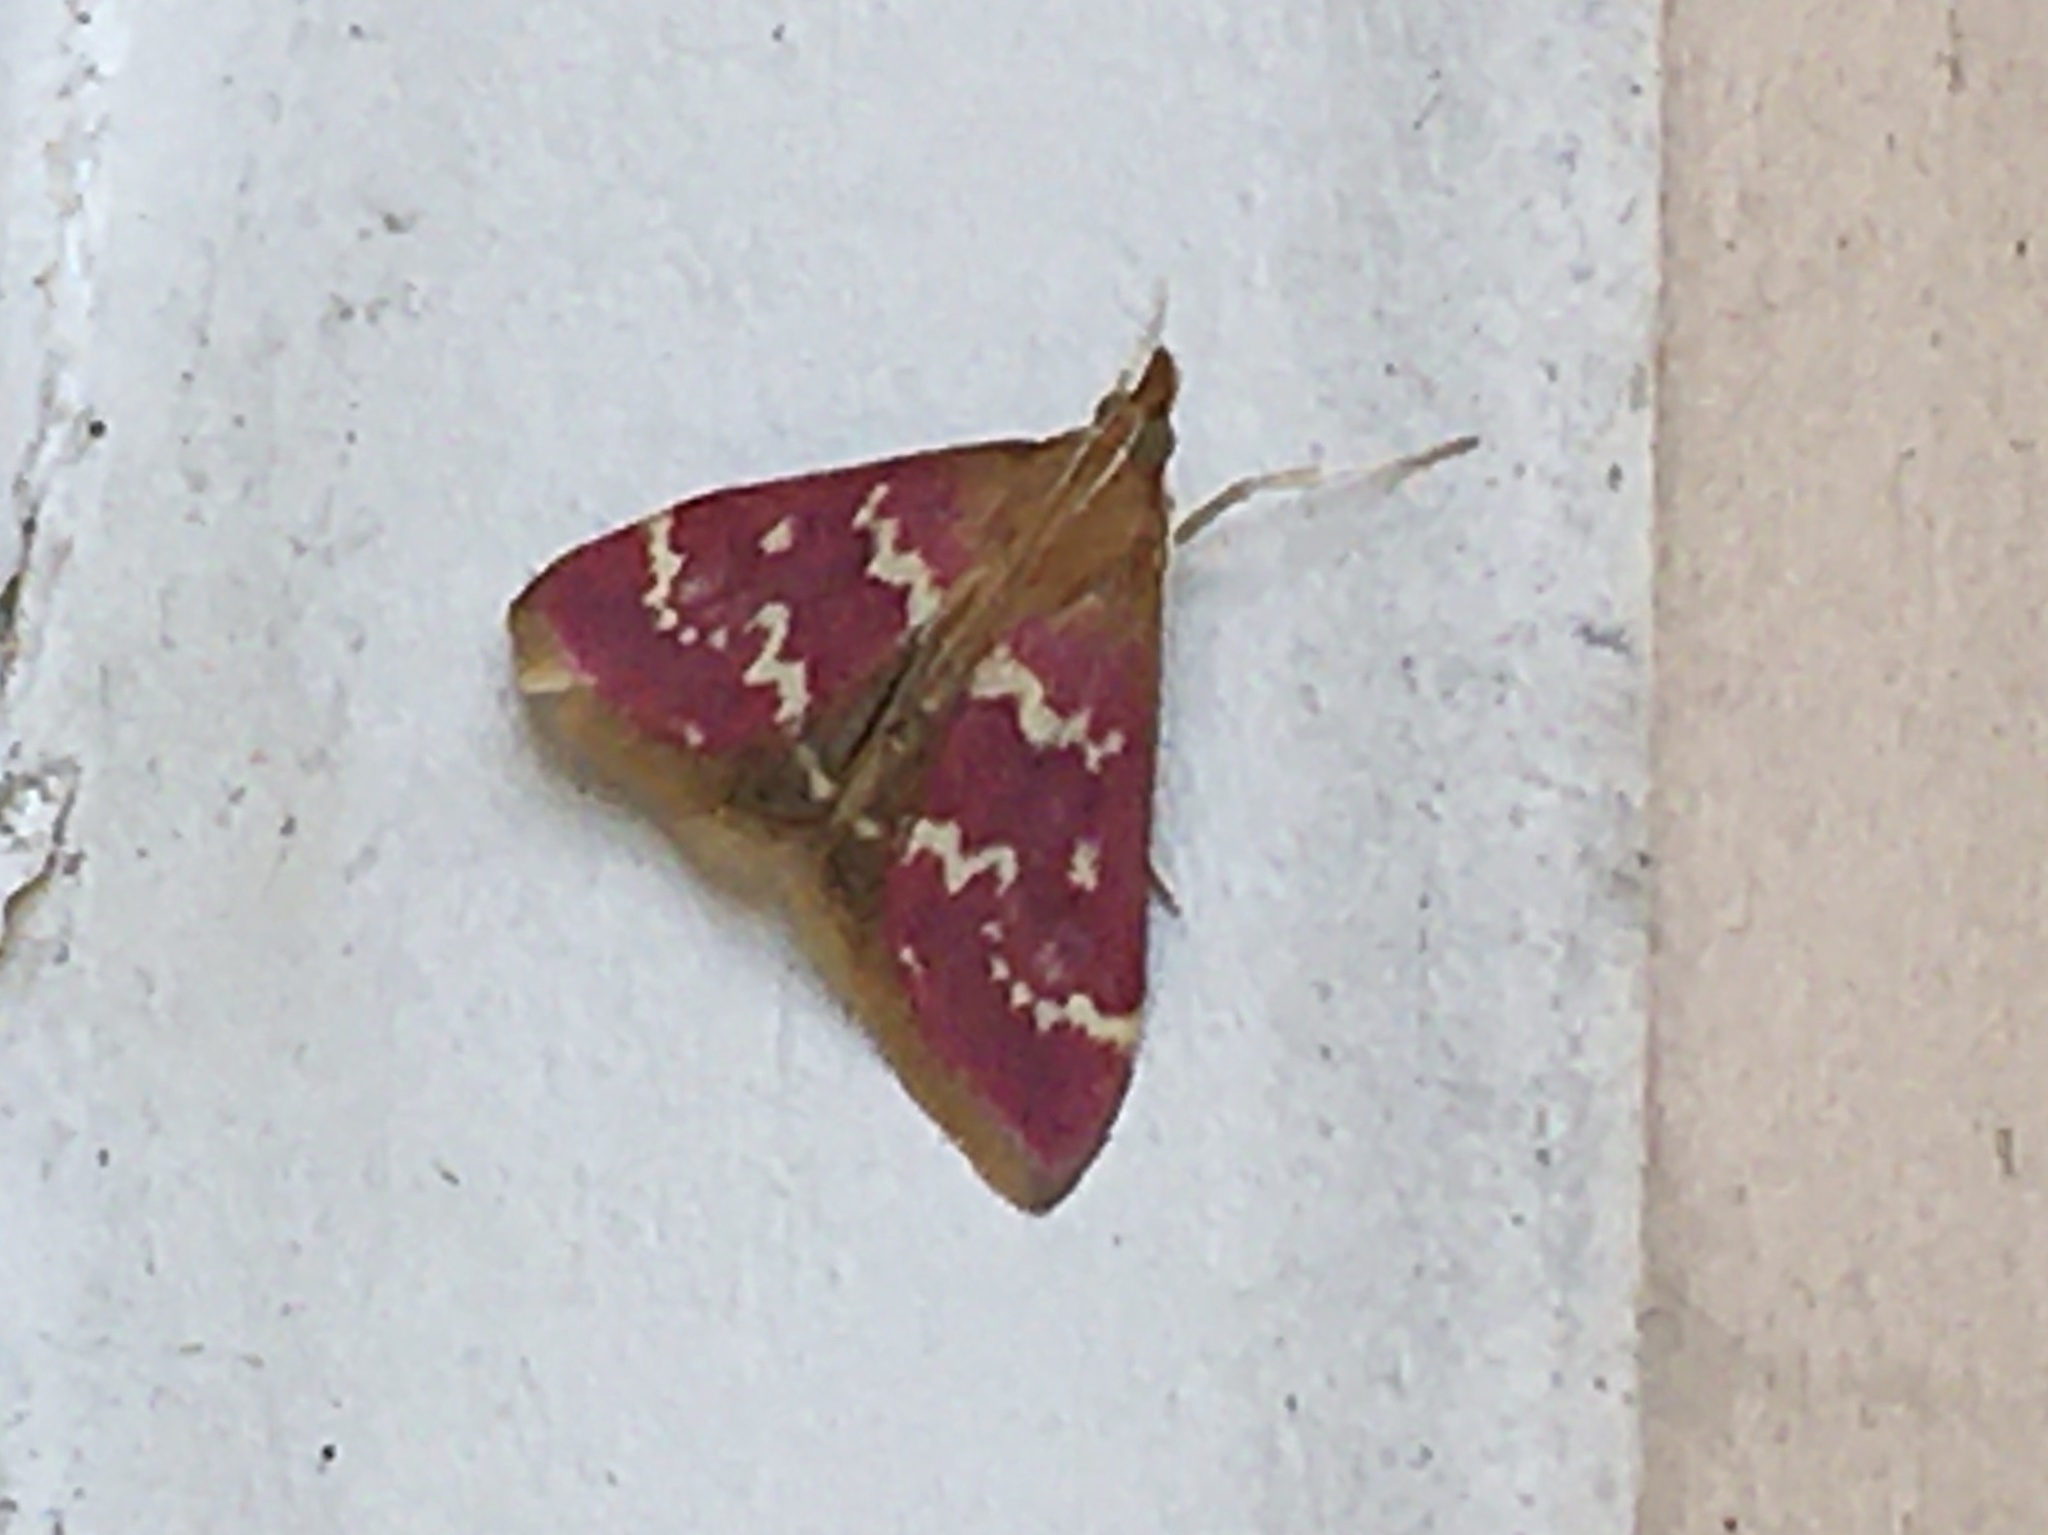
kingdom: Animalia
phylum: Arthropoda
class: Insecta
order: Lepidoptera
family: Crambidae
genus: Pyrausta
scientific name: Pyrausta signatalis
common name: Raspberry pyrausta moth
